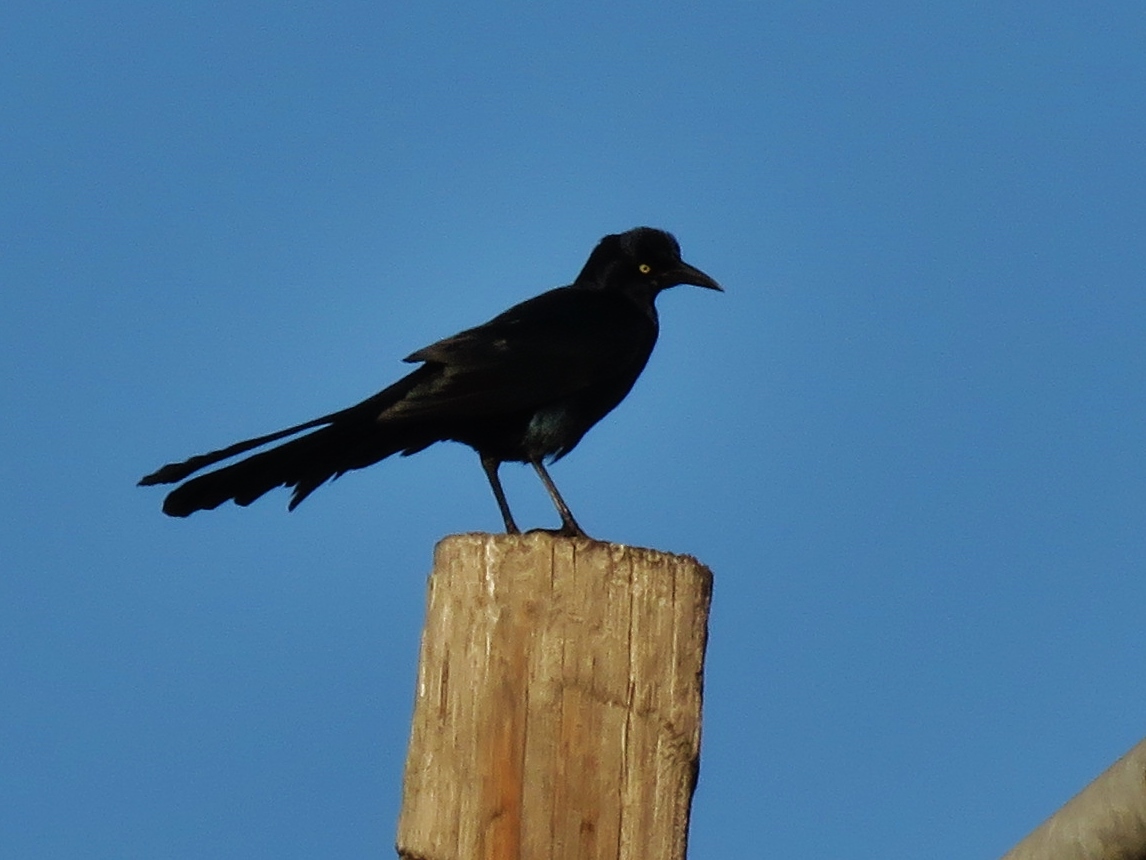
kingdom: Animalia
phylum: Chordata
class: Aves
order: Passeriformes
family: Icteridae
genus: Quiscalus
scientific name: Quiscalus mexicanus
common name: Great-tailed grackle
